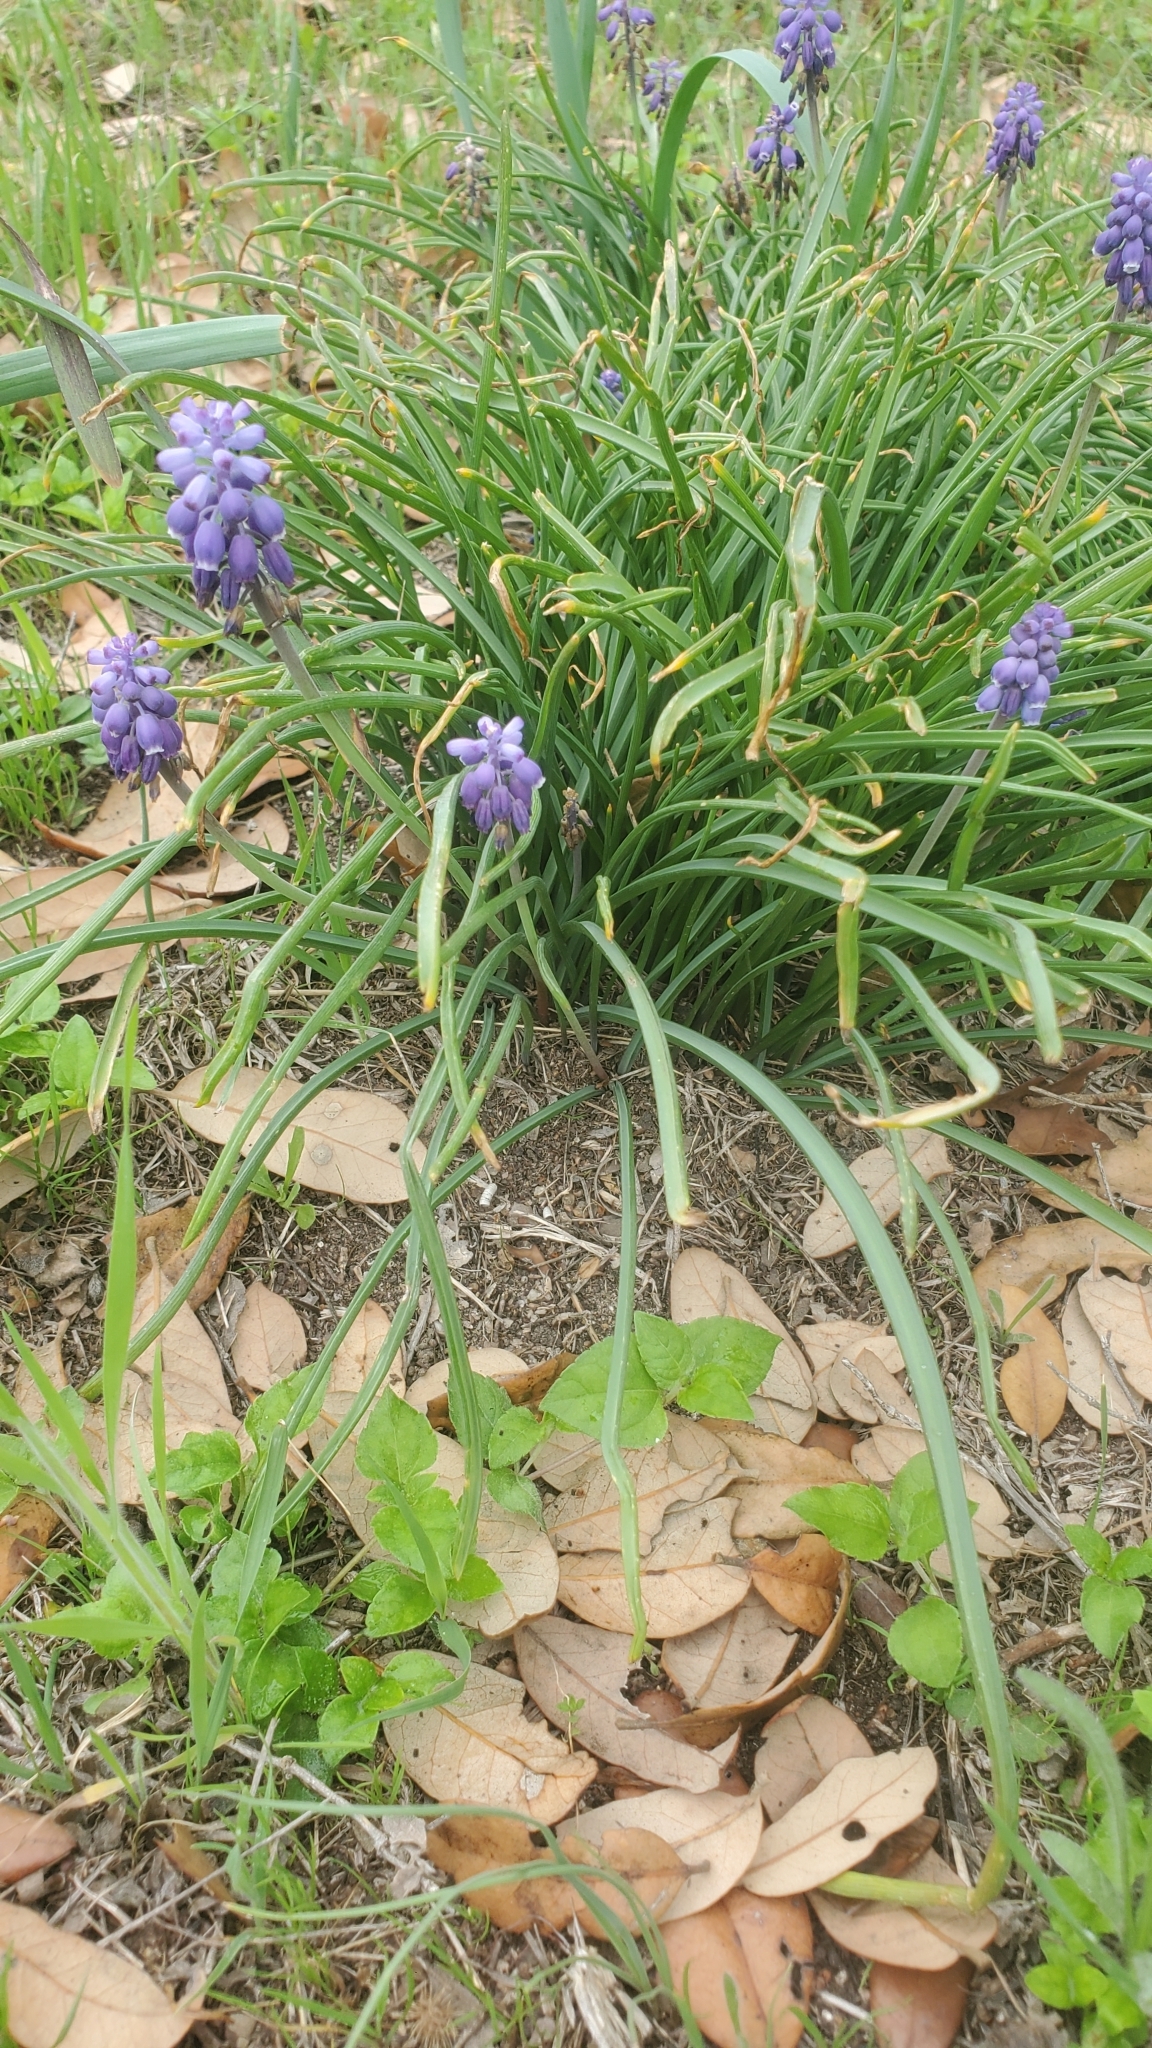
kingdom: Plantae
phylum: Tracheophyta
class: Liliopsida
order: Asparagales
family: Asparagaceae
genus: Muscari
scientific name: Muscari neglectum
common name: Grape-hyacinth
